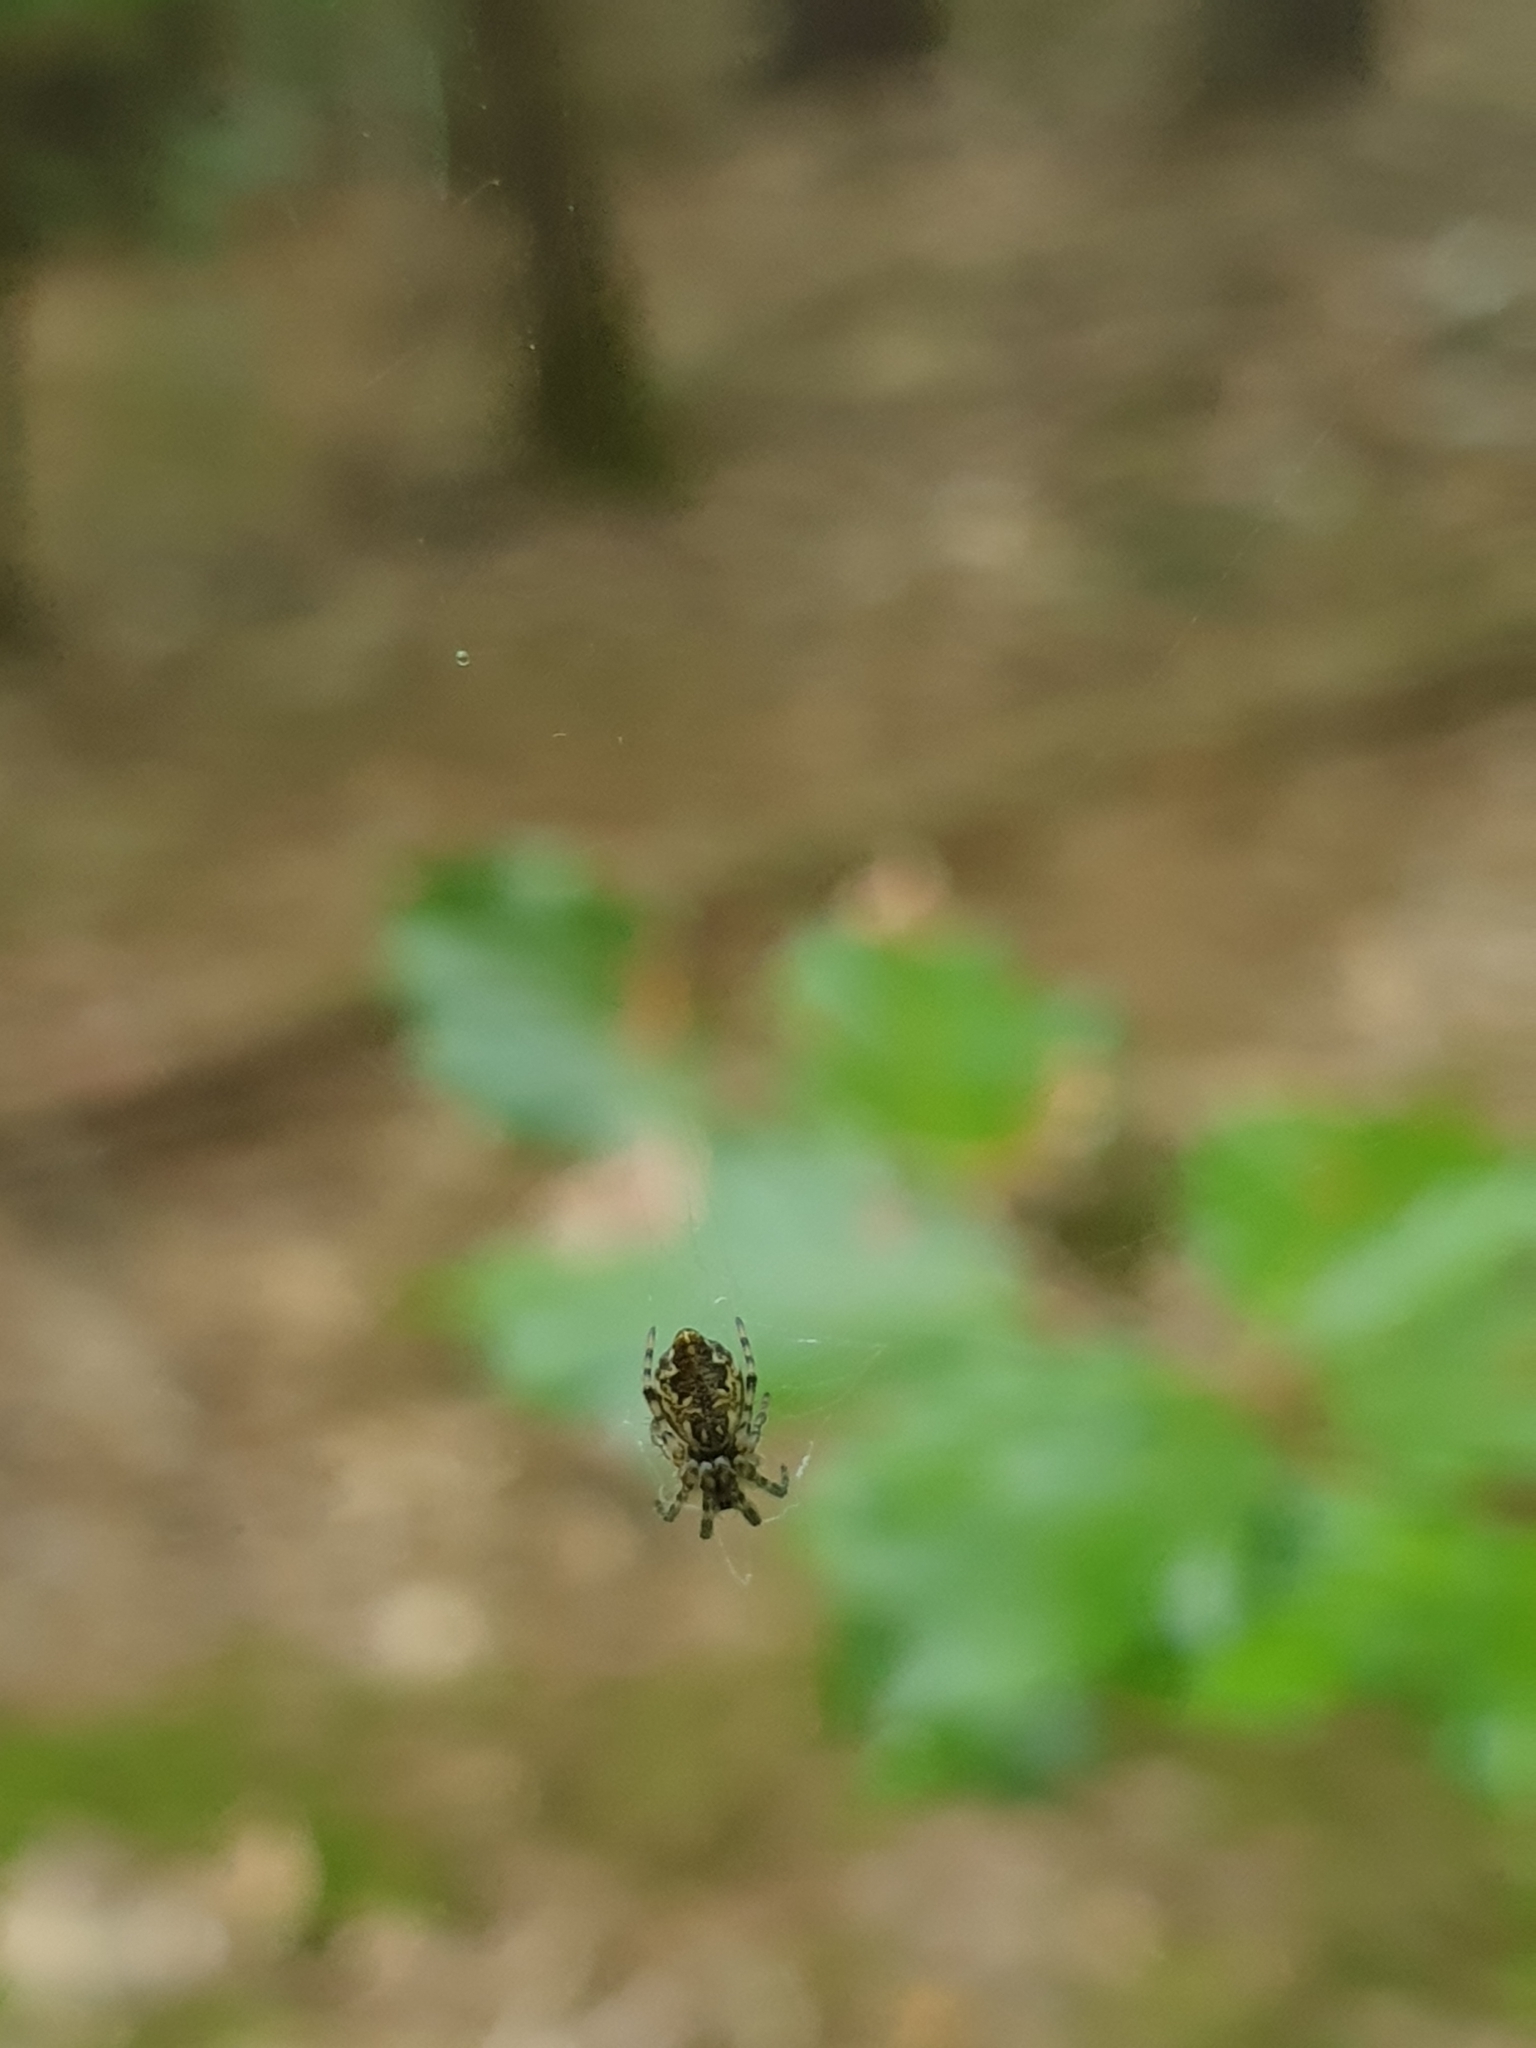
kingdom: Animalia
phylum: Arthropoda
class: Arachnida
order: Araneae
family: Araneidae
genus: Cyclosa
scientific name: Cyclosa conica
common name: Conical trashline orbweaver
